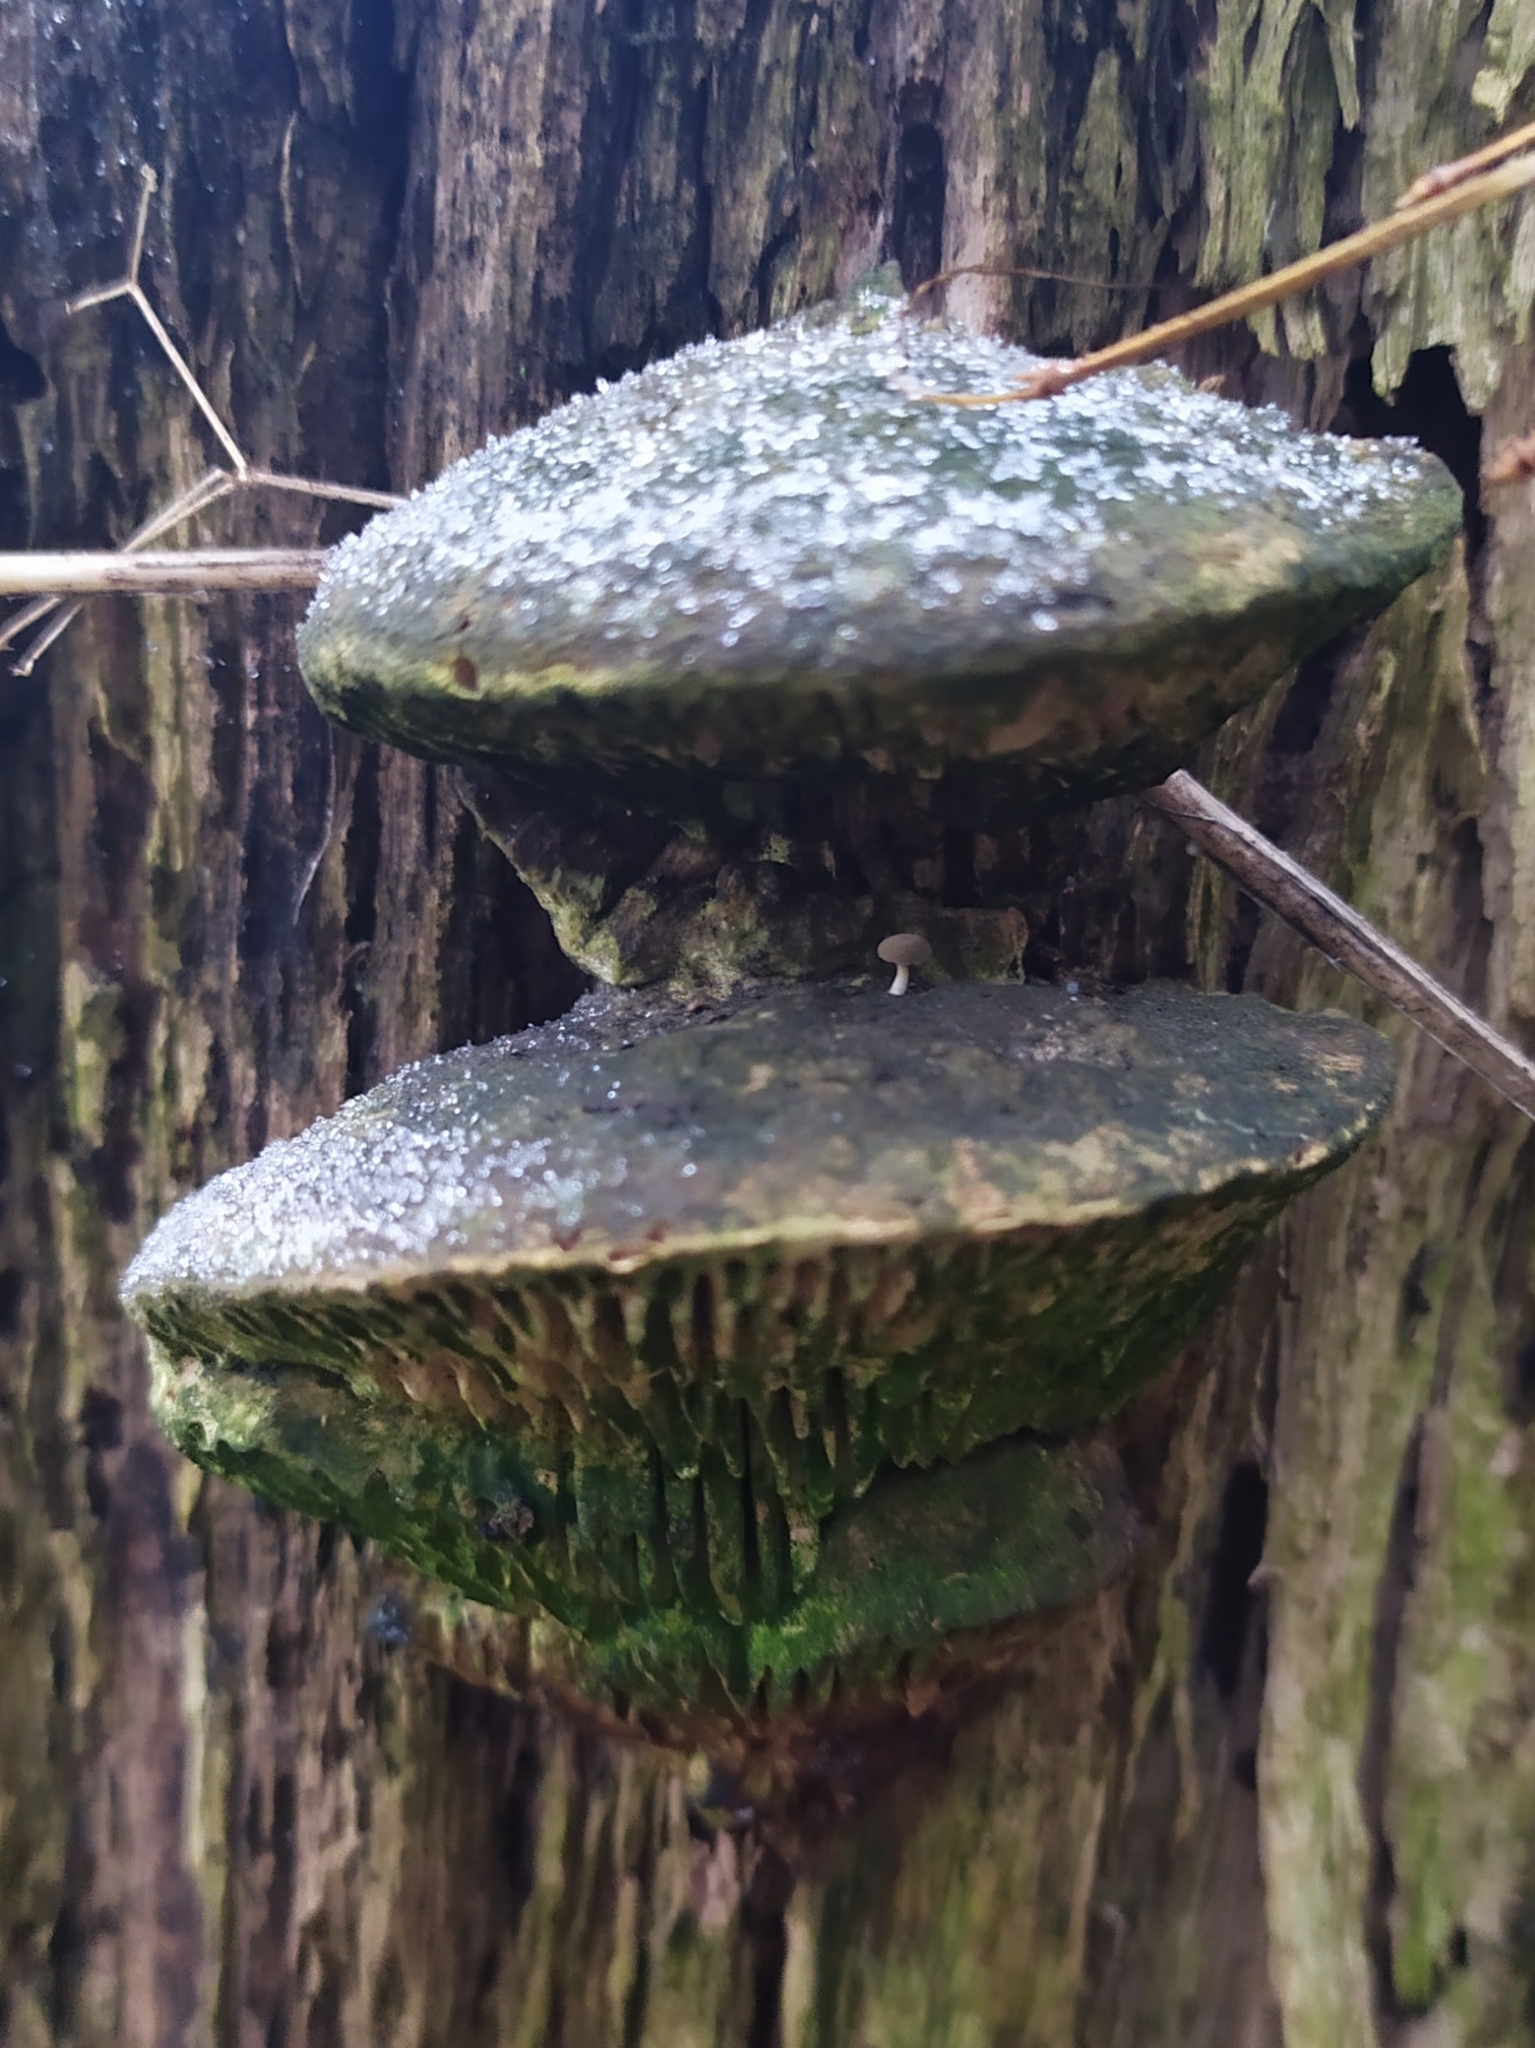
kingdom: Fungi
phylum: Basidiomycota
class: Agaricomycetes
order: Polyporales
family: Fomitopsidaceae
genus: Fomitopsis
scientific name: Fomitopsis
